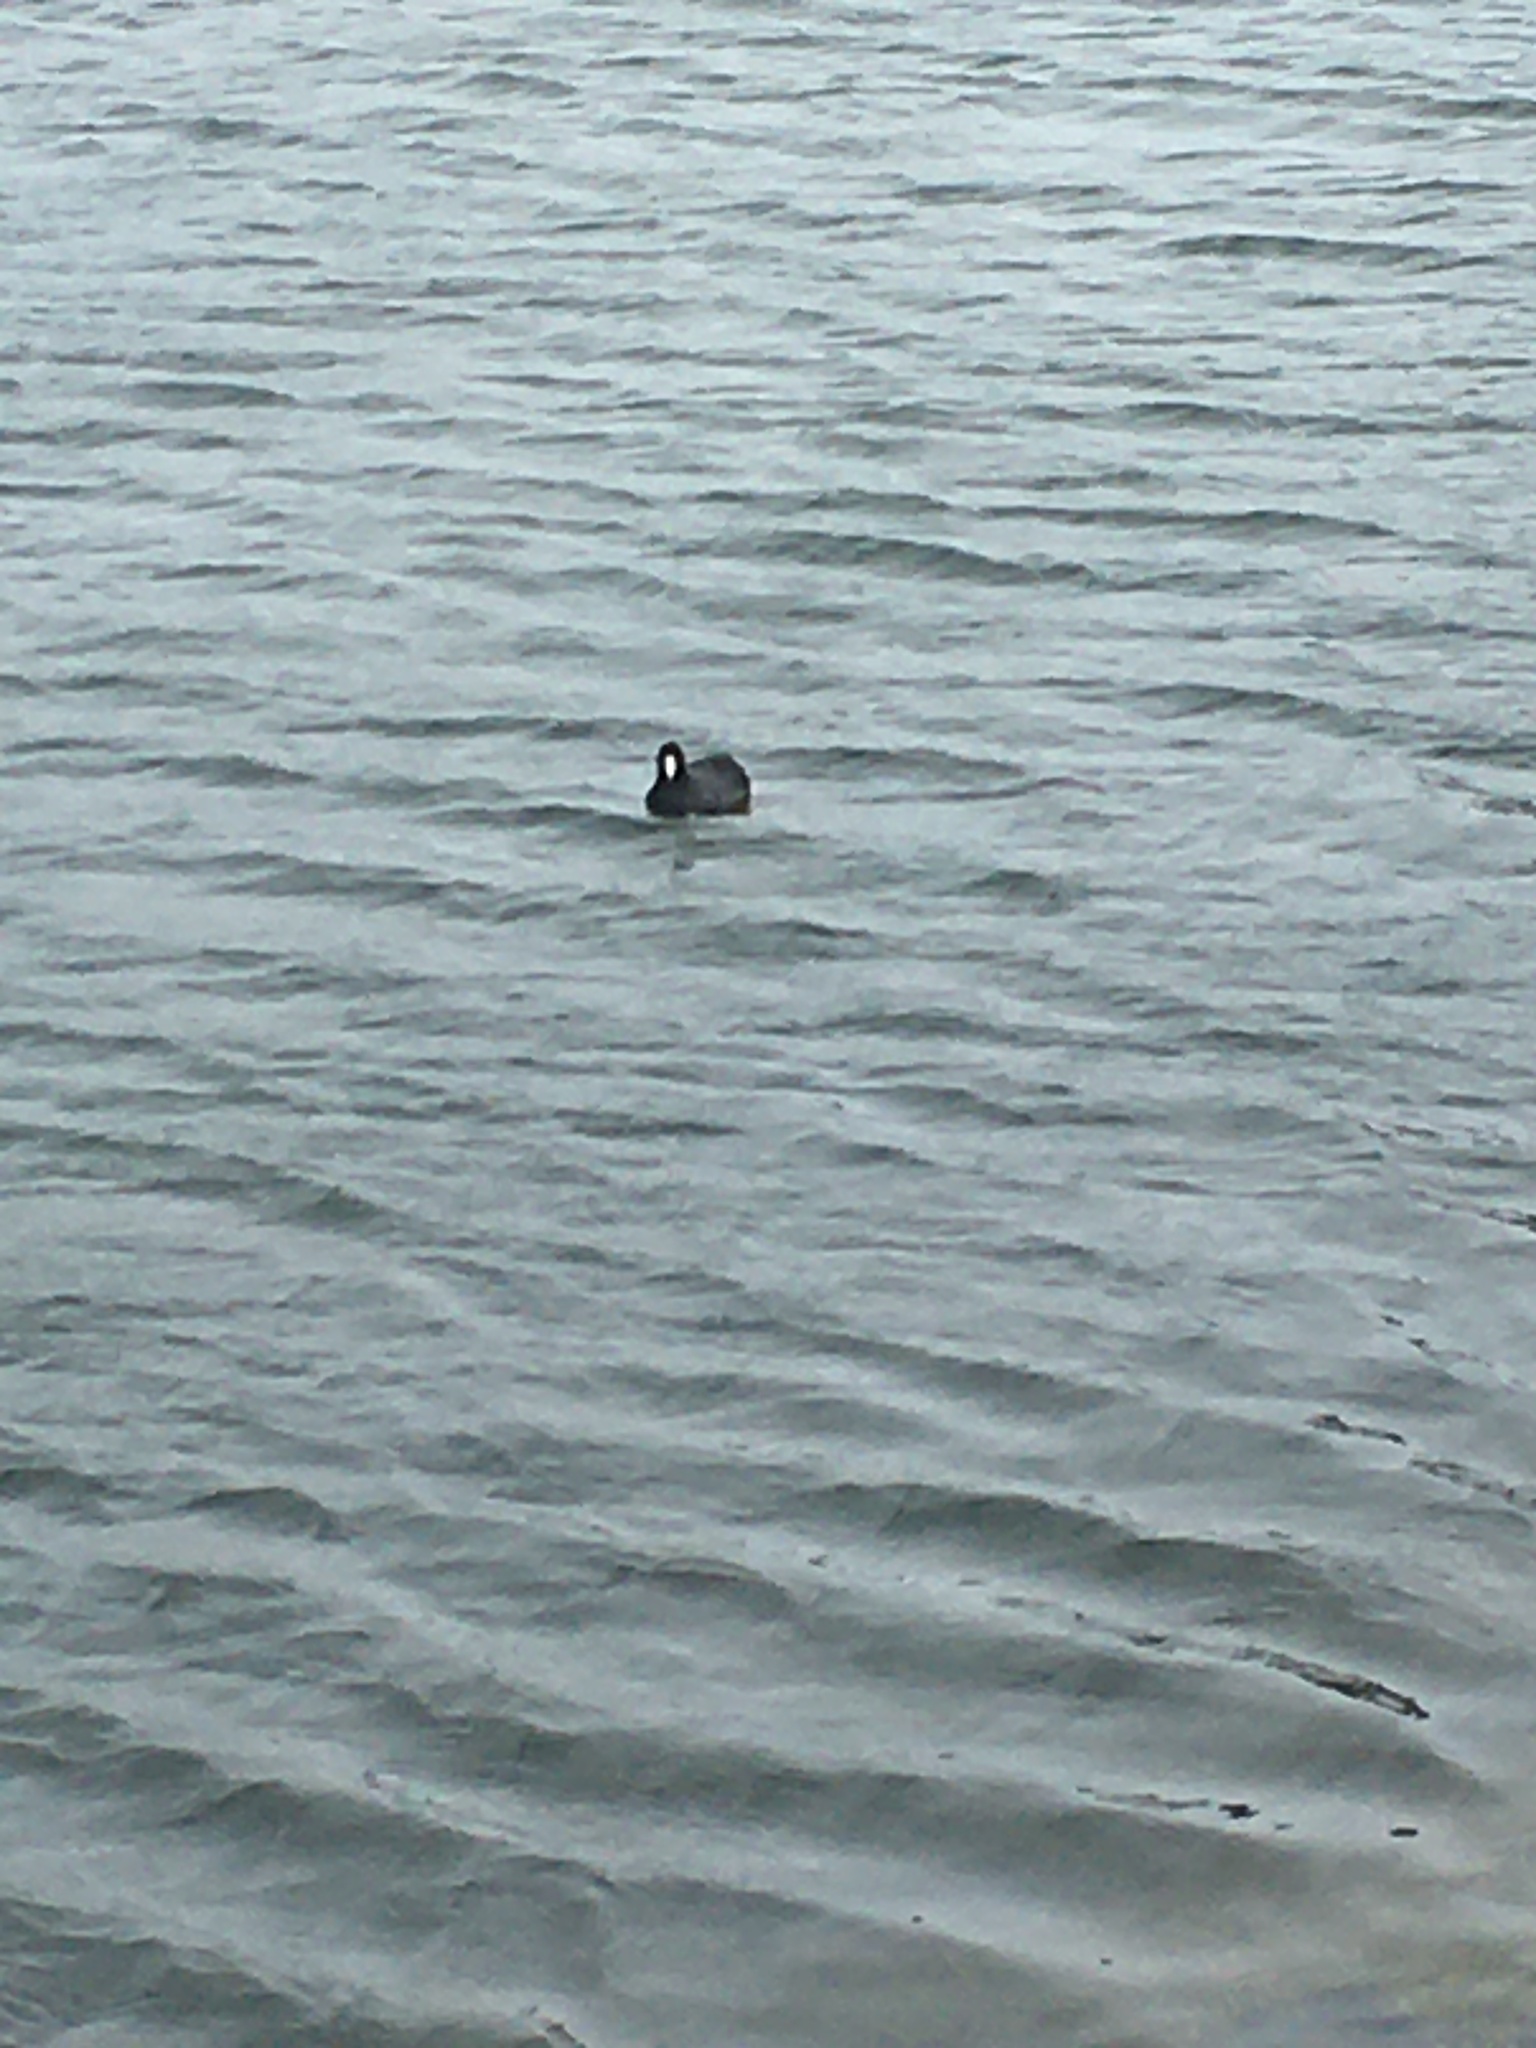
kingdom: Animalia
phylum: Chordata
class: Aves
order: Gruiformes
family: Rallidae
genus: Fulica
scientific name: Fulica americana
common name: American coot
